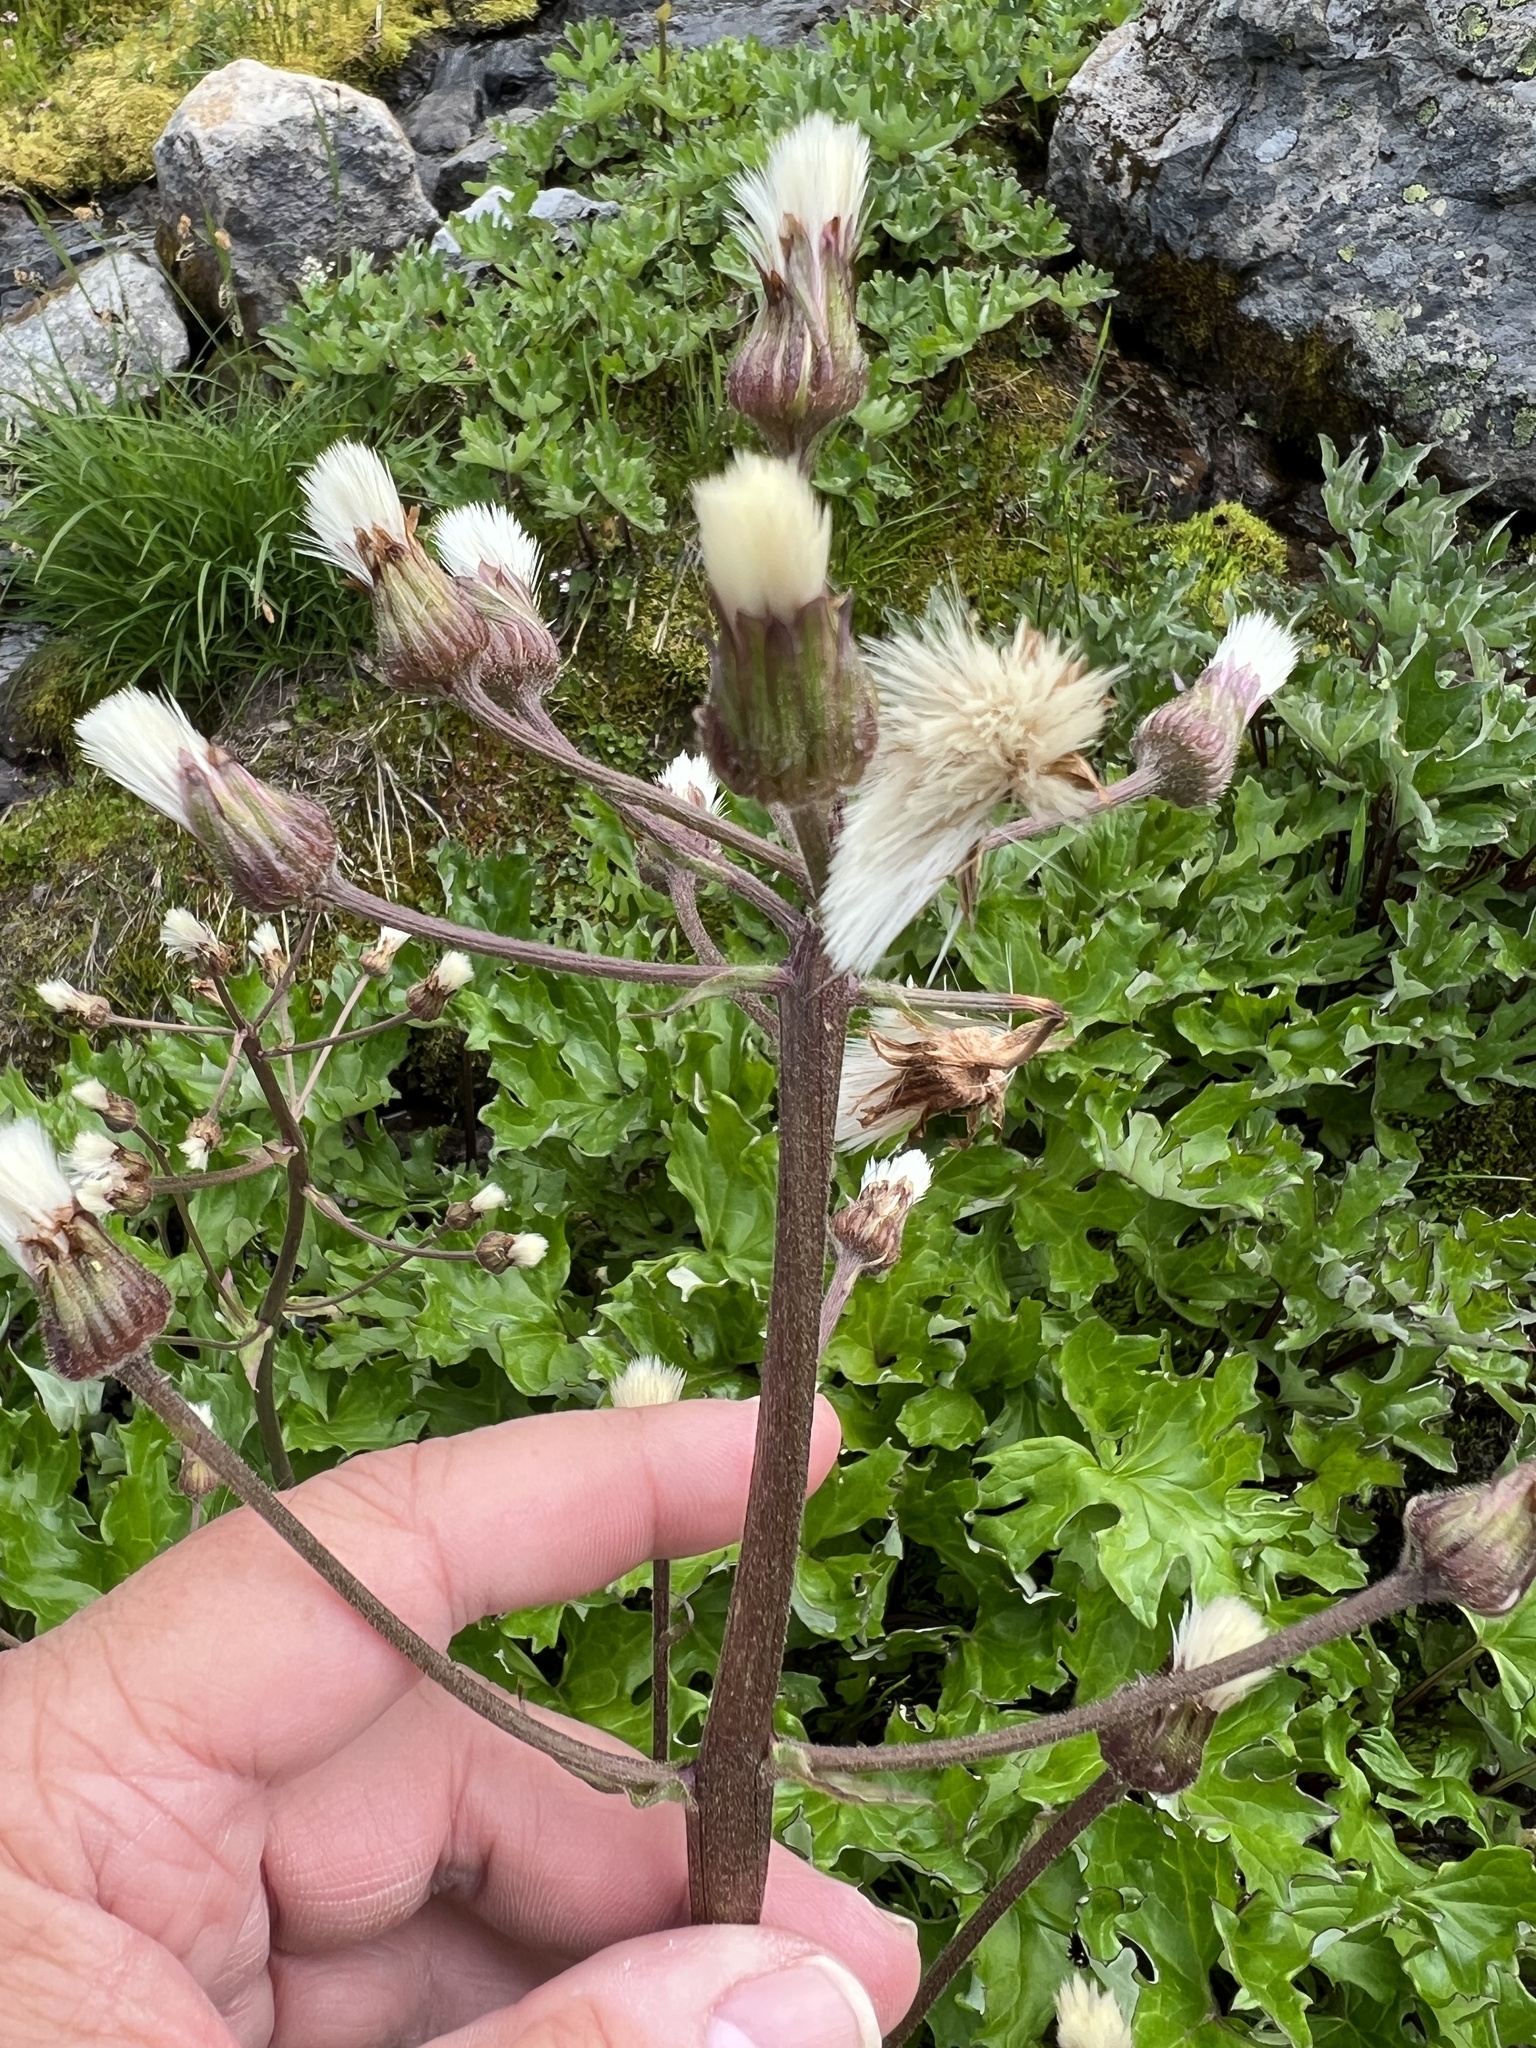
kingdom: Plantae
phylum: Tracheophyta
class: Magnoliopsida
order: Asterales
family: Asteraceae
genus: Petasites
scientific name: Petasites frigidus
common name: Arctic butterbur
